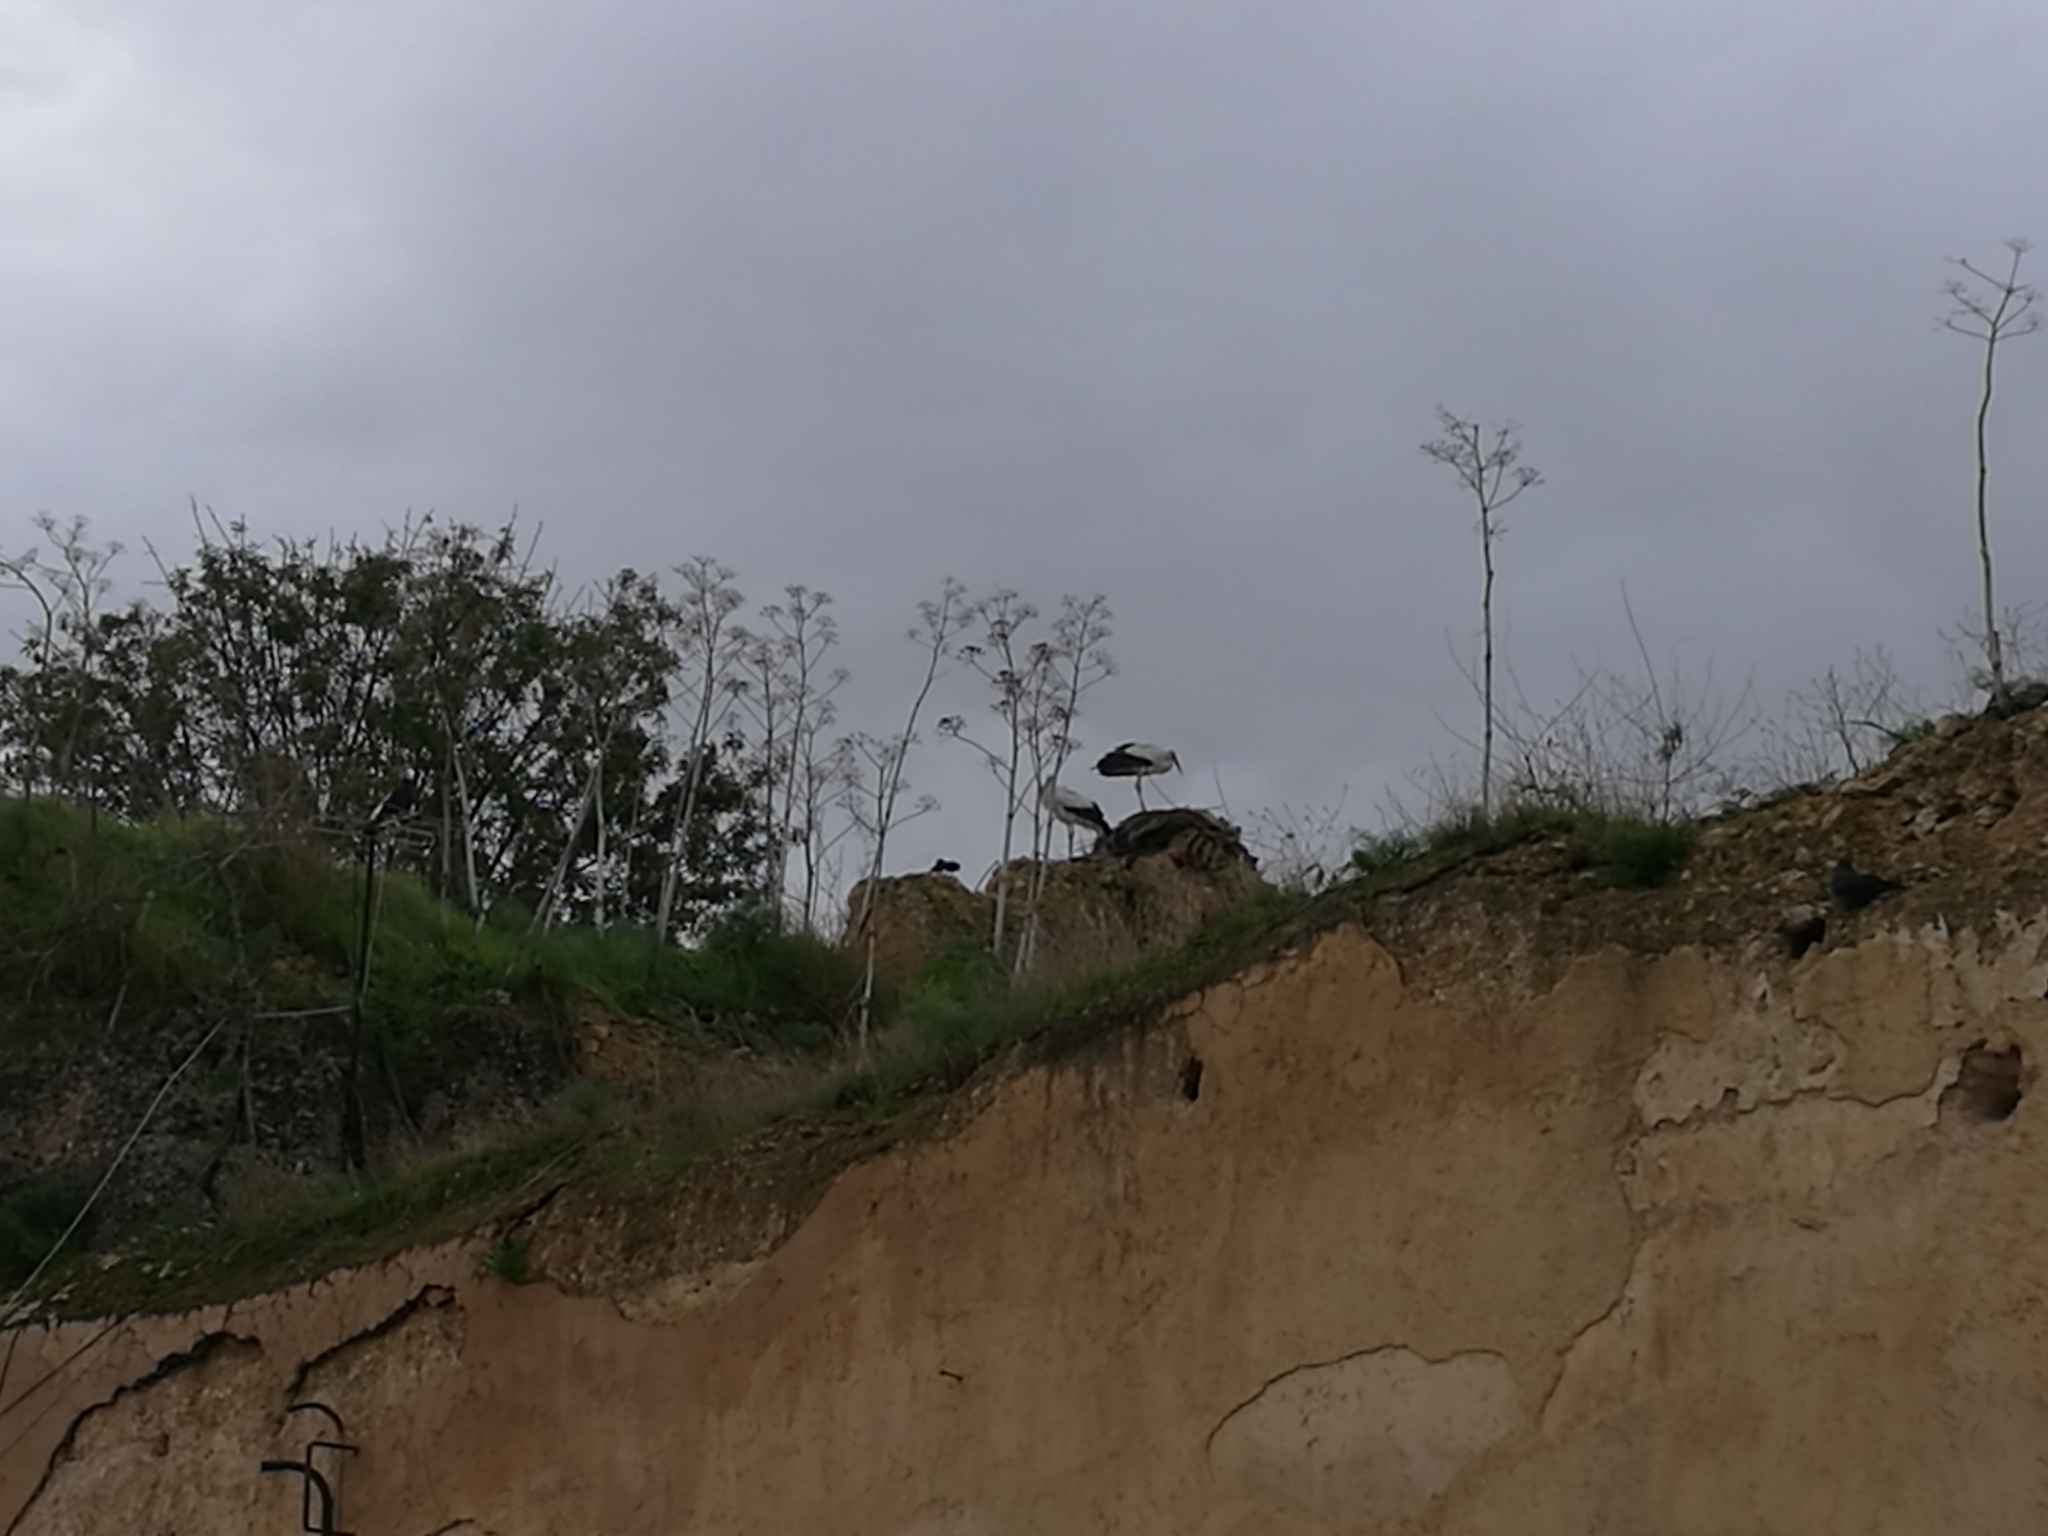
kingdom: Animalia
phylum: Chordata
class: Aves
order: Ciconiiformes
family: Ciconiidae
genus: Ciconia
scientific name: Ciconia ciconia
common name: White stork
